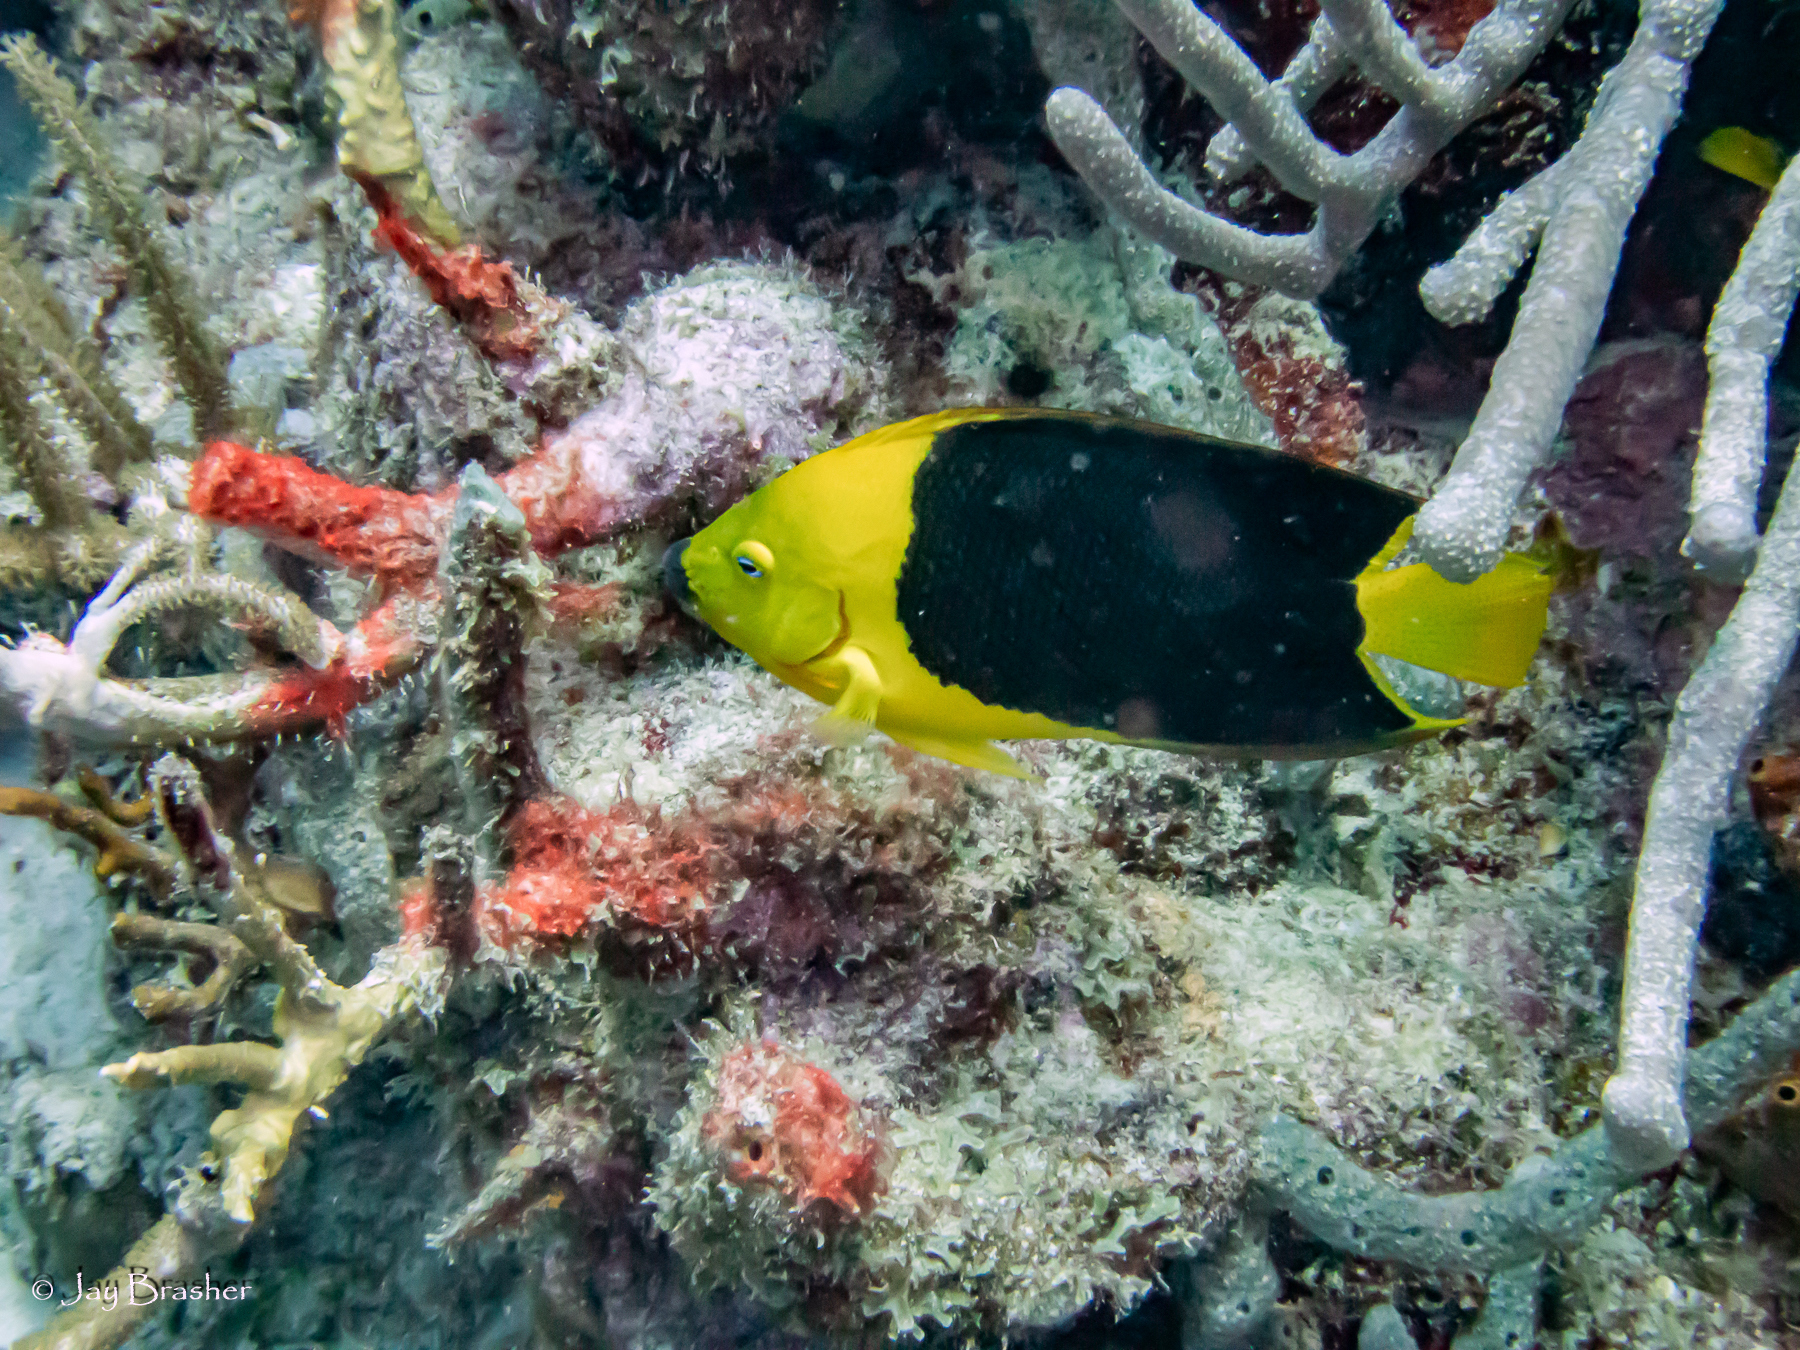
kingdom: Animalia
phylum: Chordata
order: Perciformes
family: Pomacanthidae
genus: Holacanthus
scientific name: Holacanthus tricolor
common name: Rock beauty
